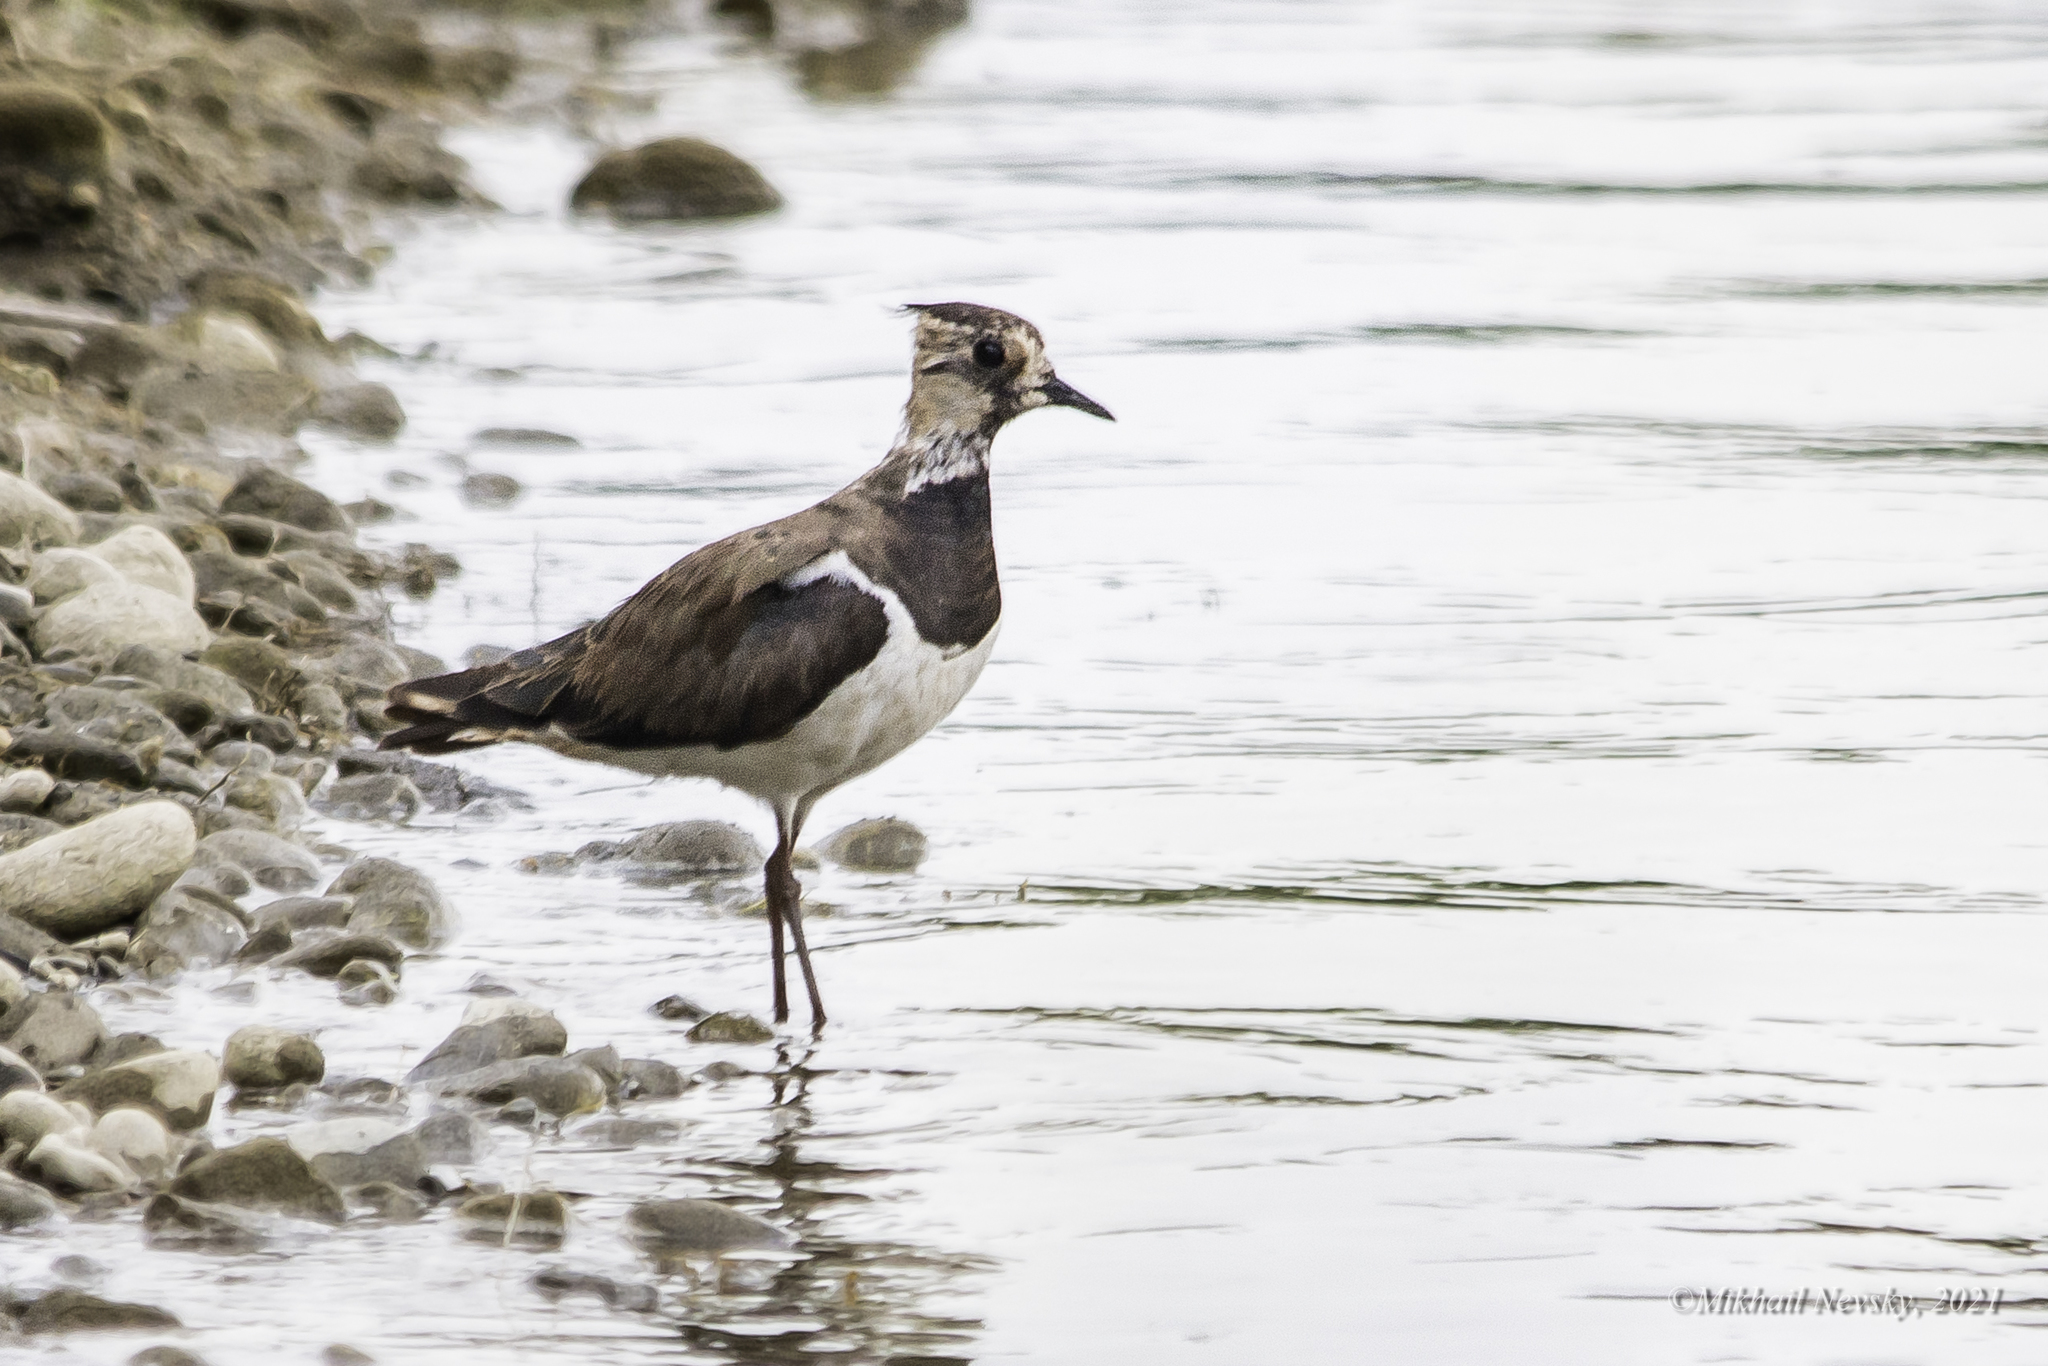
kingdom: Animalia
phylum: Chordata
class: Aves
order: Charadriiformes
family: Charadriidae
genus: Vanellus
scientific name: Vanellus vanellus
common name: Northern lapwing
